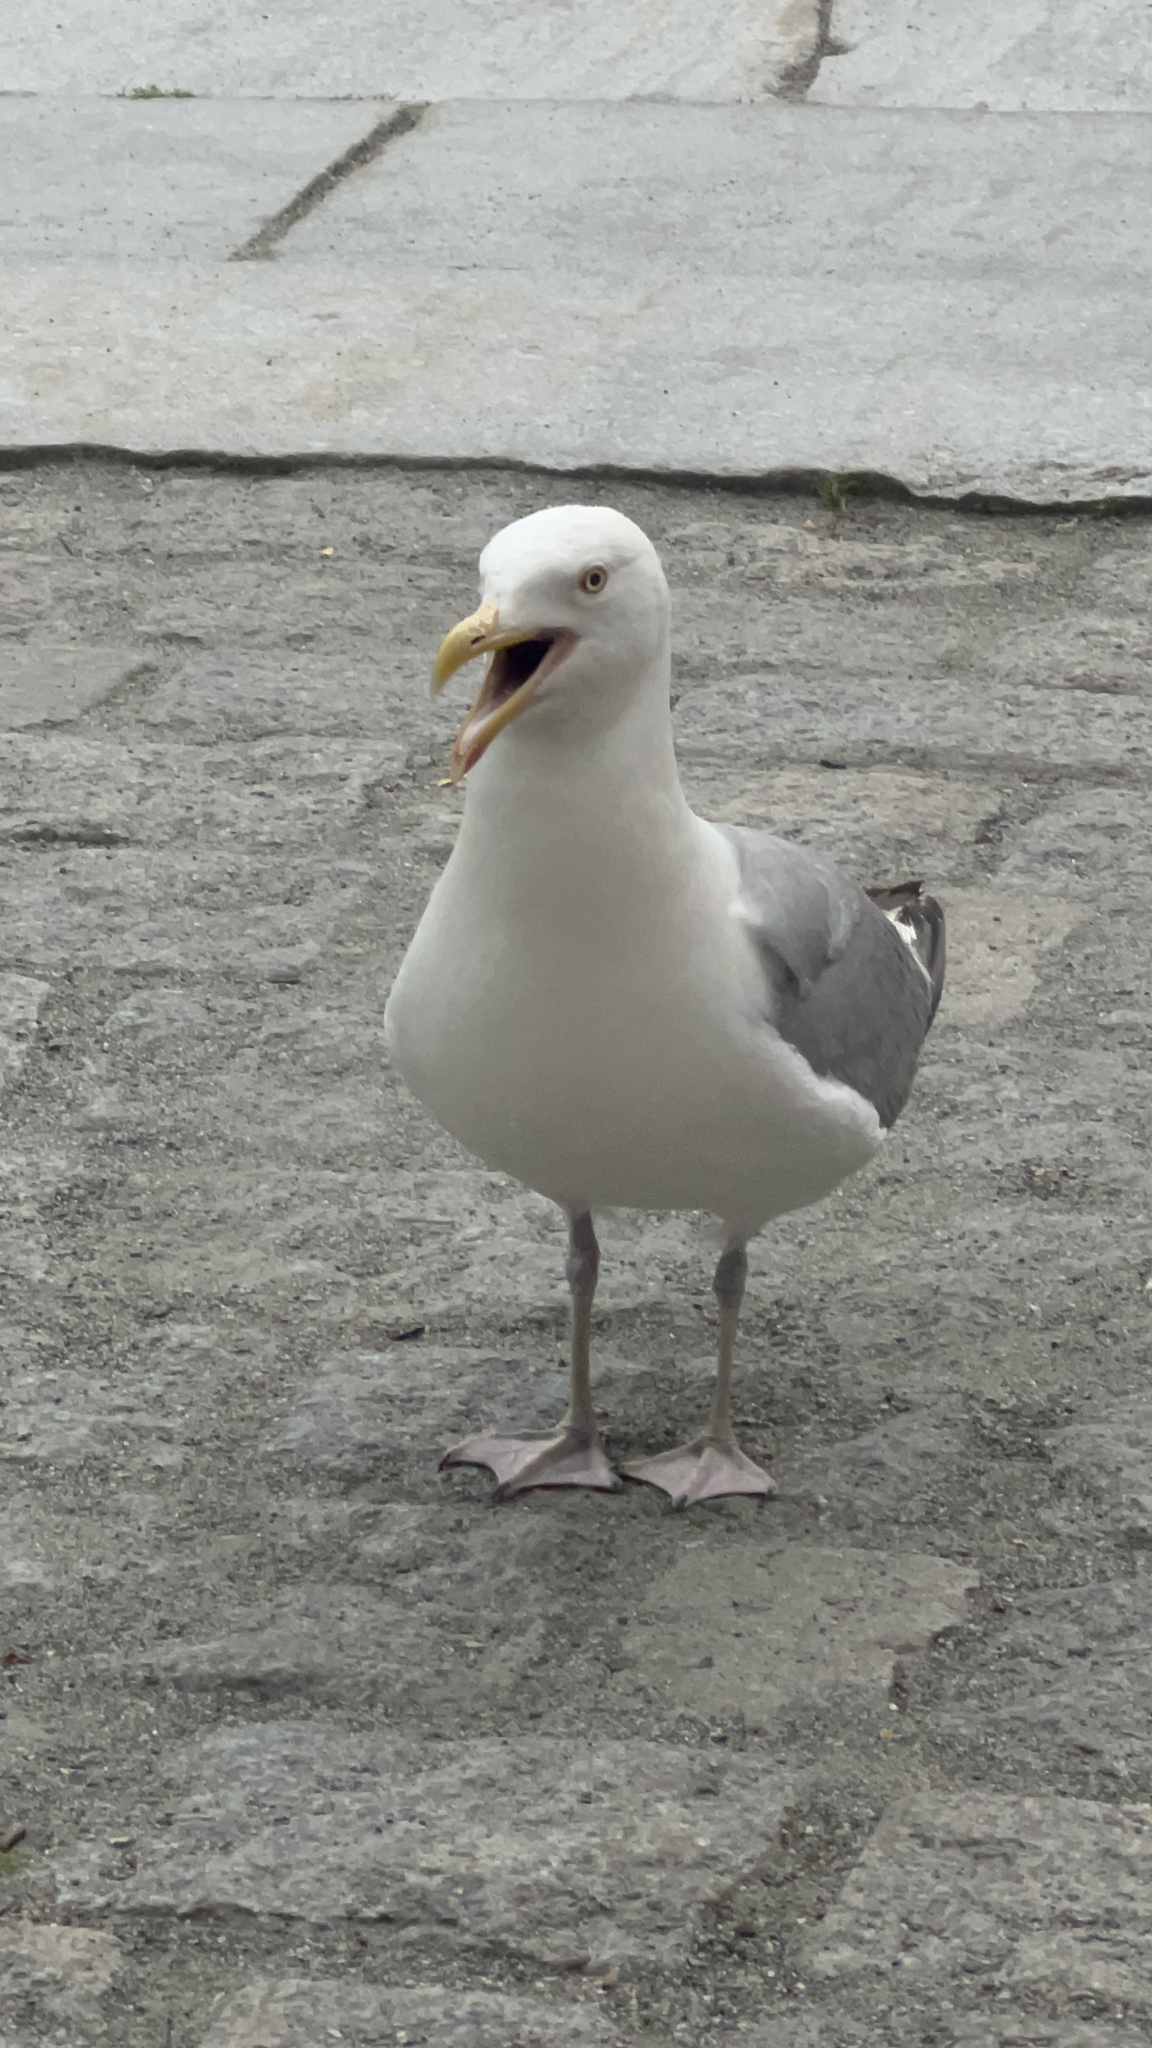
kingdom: Animalia
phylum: Chordata
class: Aves
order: Charadriiformes
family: Laridae
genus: Larus
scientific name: Larus argentatus
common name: Herring gull
